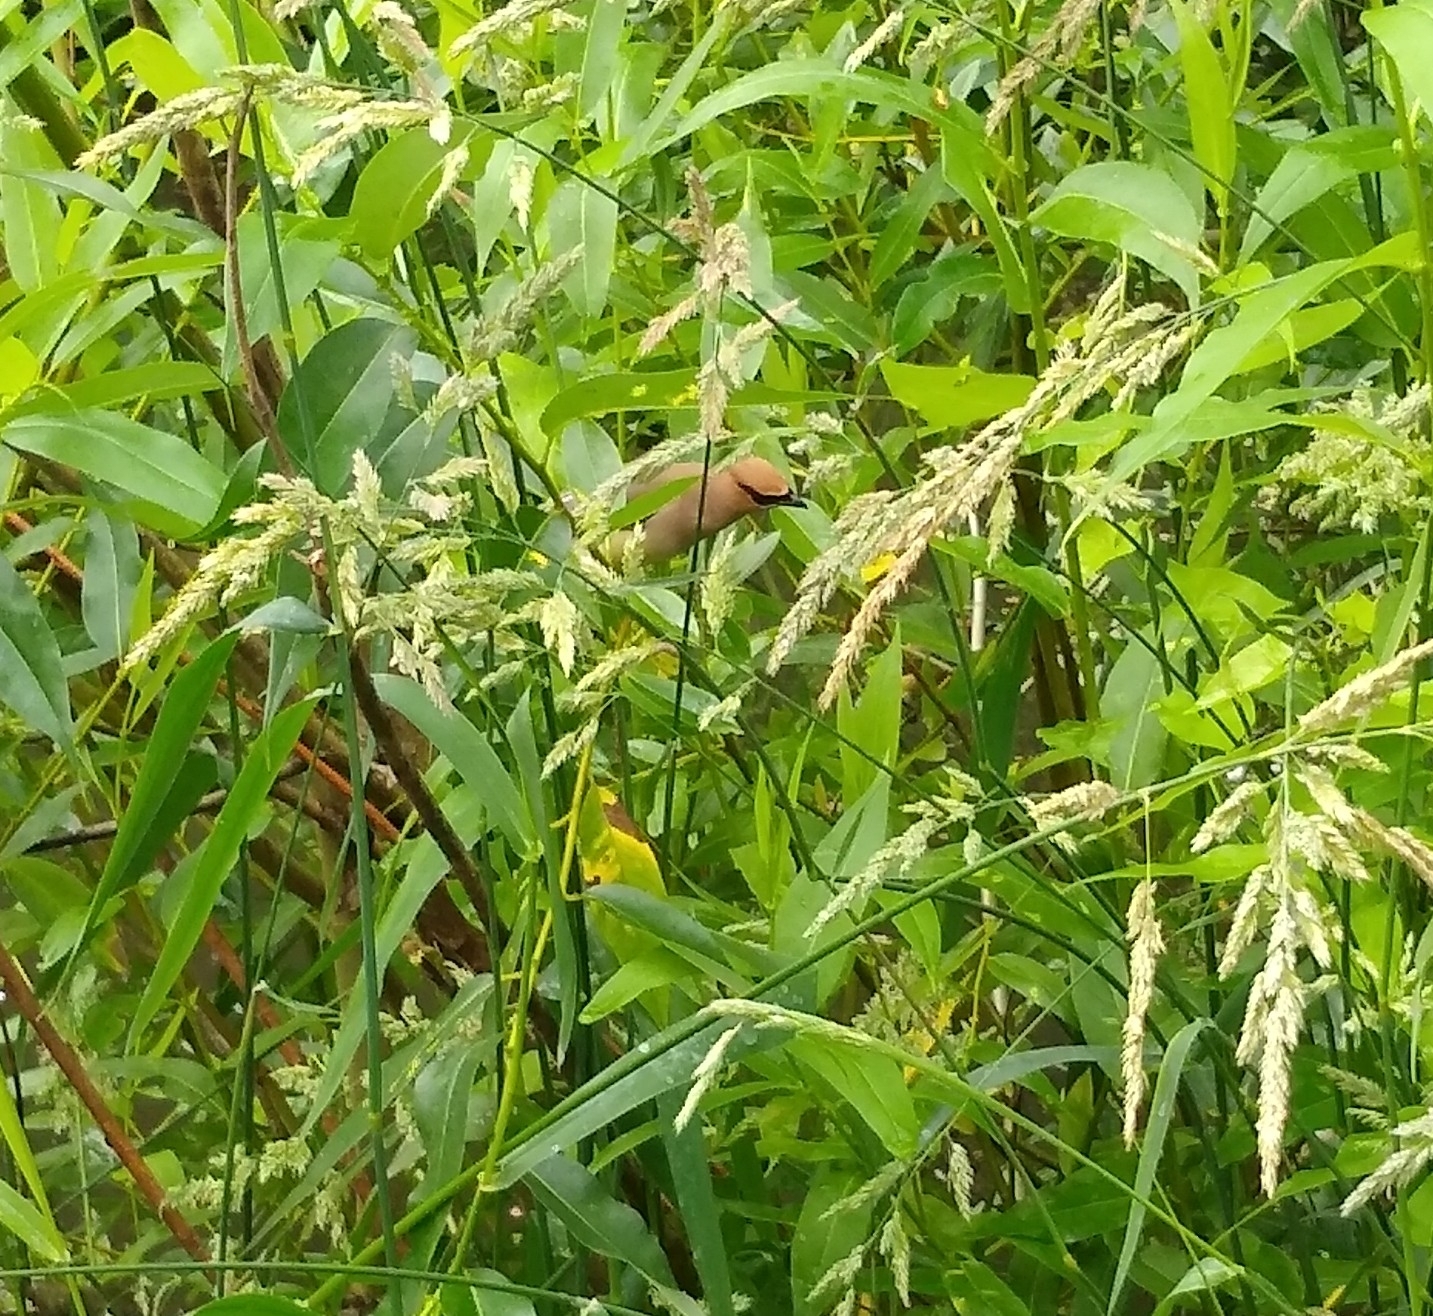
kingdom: Animalia
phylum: Chordata
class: Aves
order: Passeriformes
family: Bombycillidae
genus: Bombycilla
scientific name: Bombycilla cedrorum
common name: Cedar waxwing
